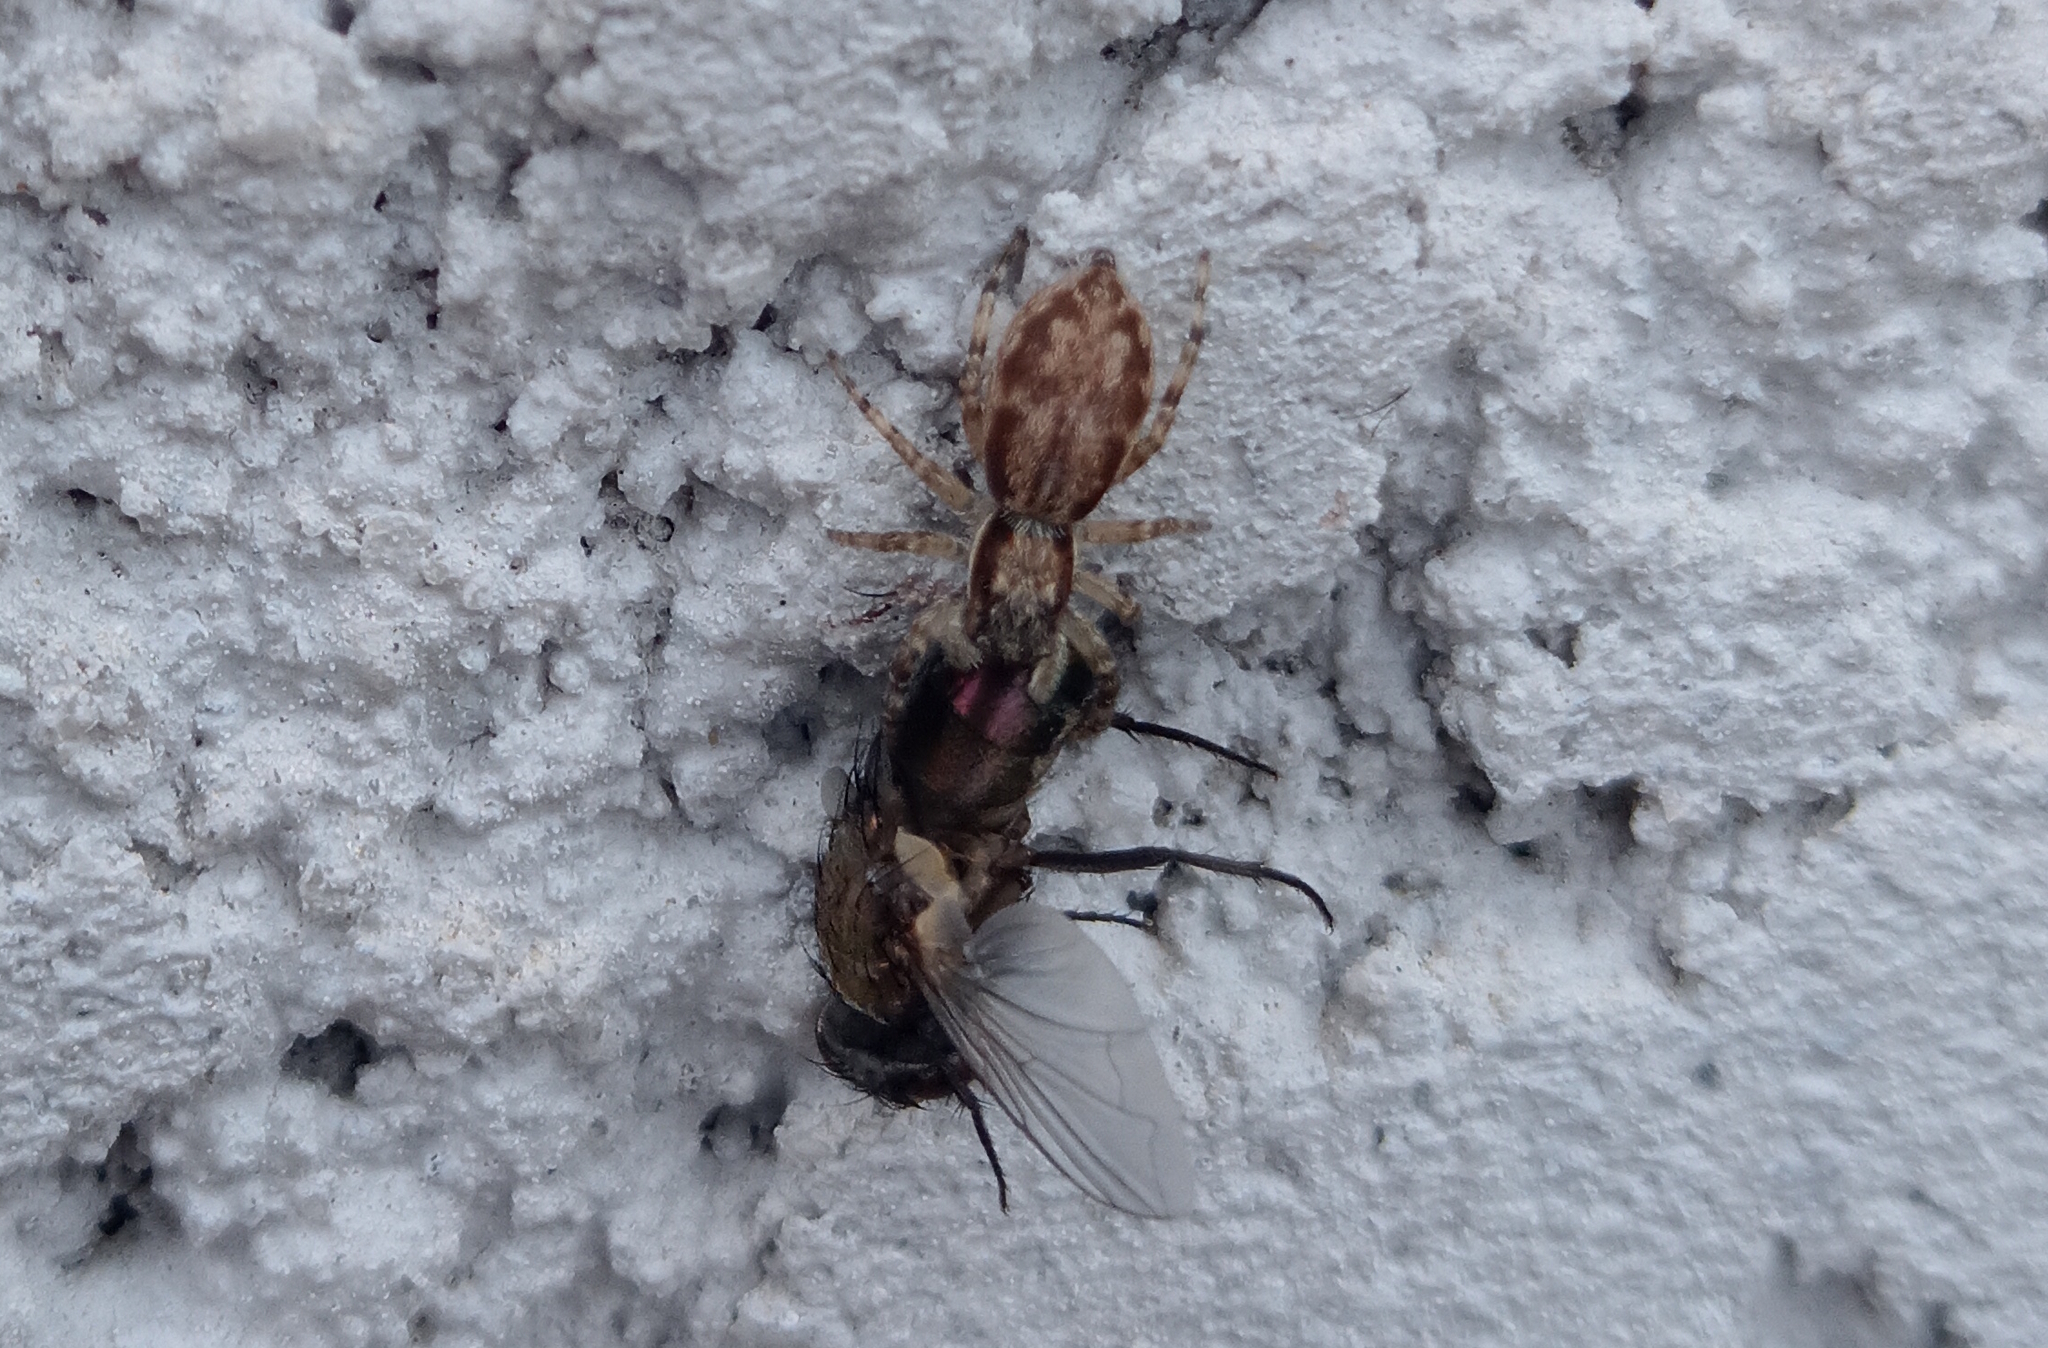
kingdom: Animalia
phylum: Arthropoda
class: Arachnida
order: Araneae
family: Salticidae
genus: Menemerus
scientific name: Menemerus bivittatus
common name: Gray wall jumper
